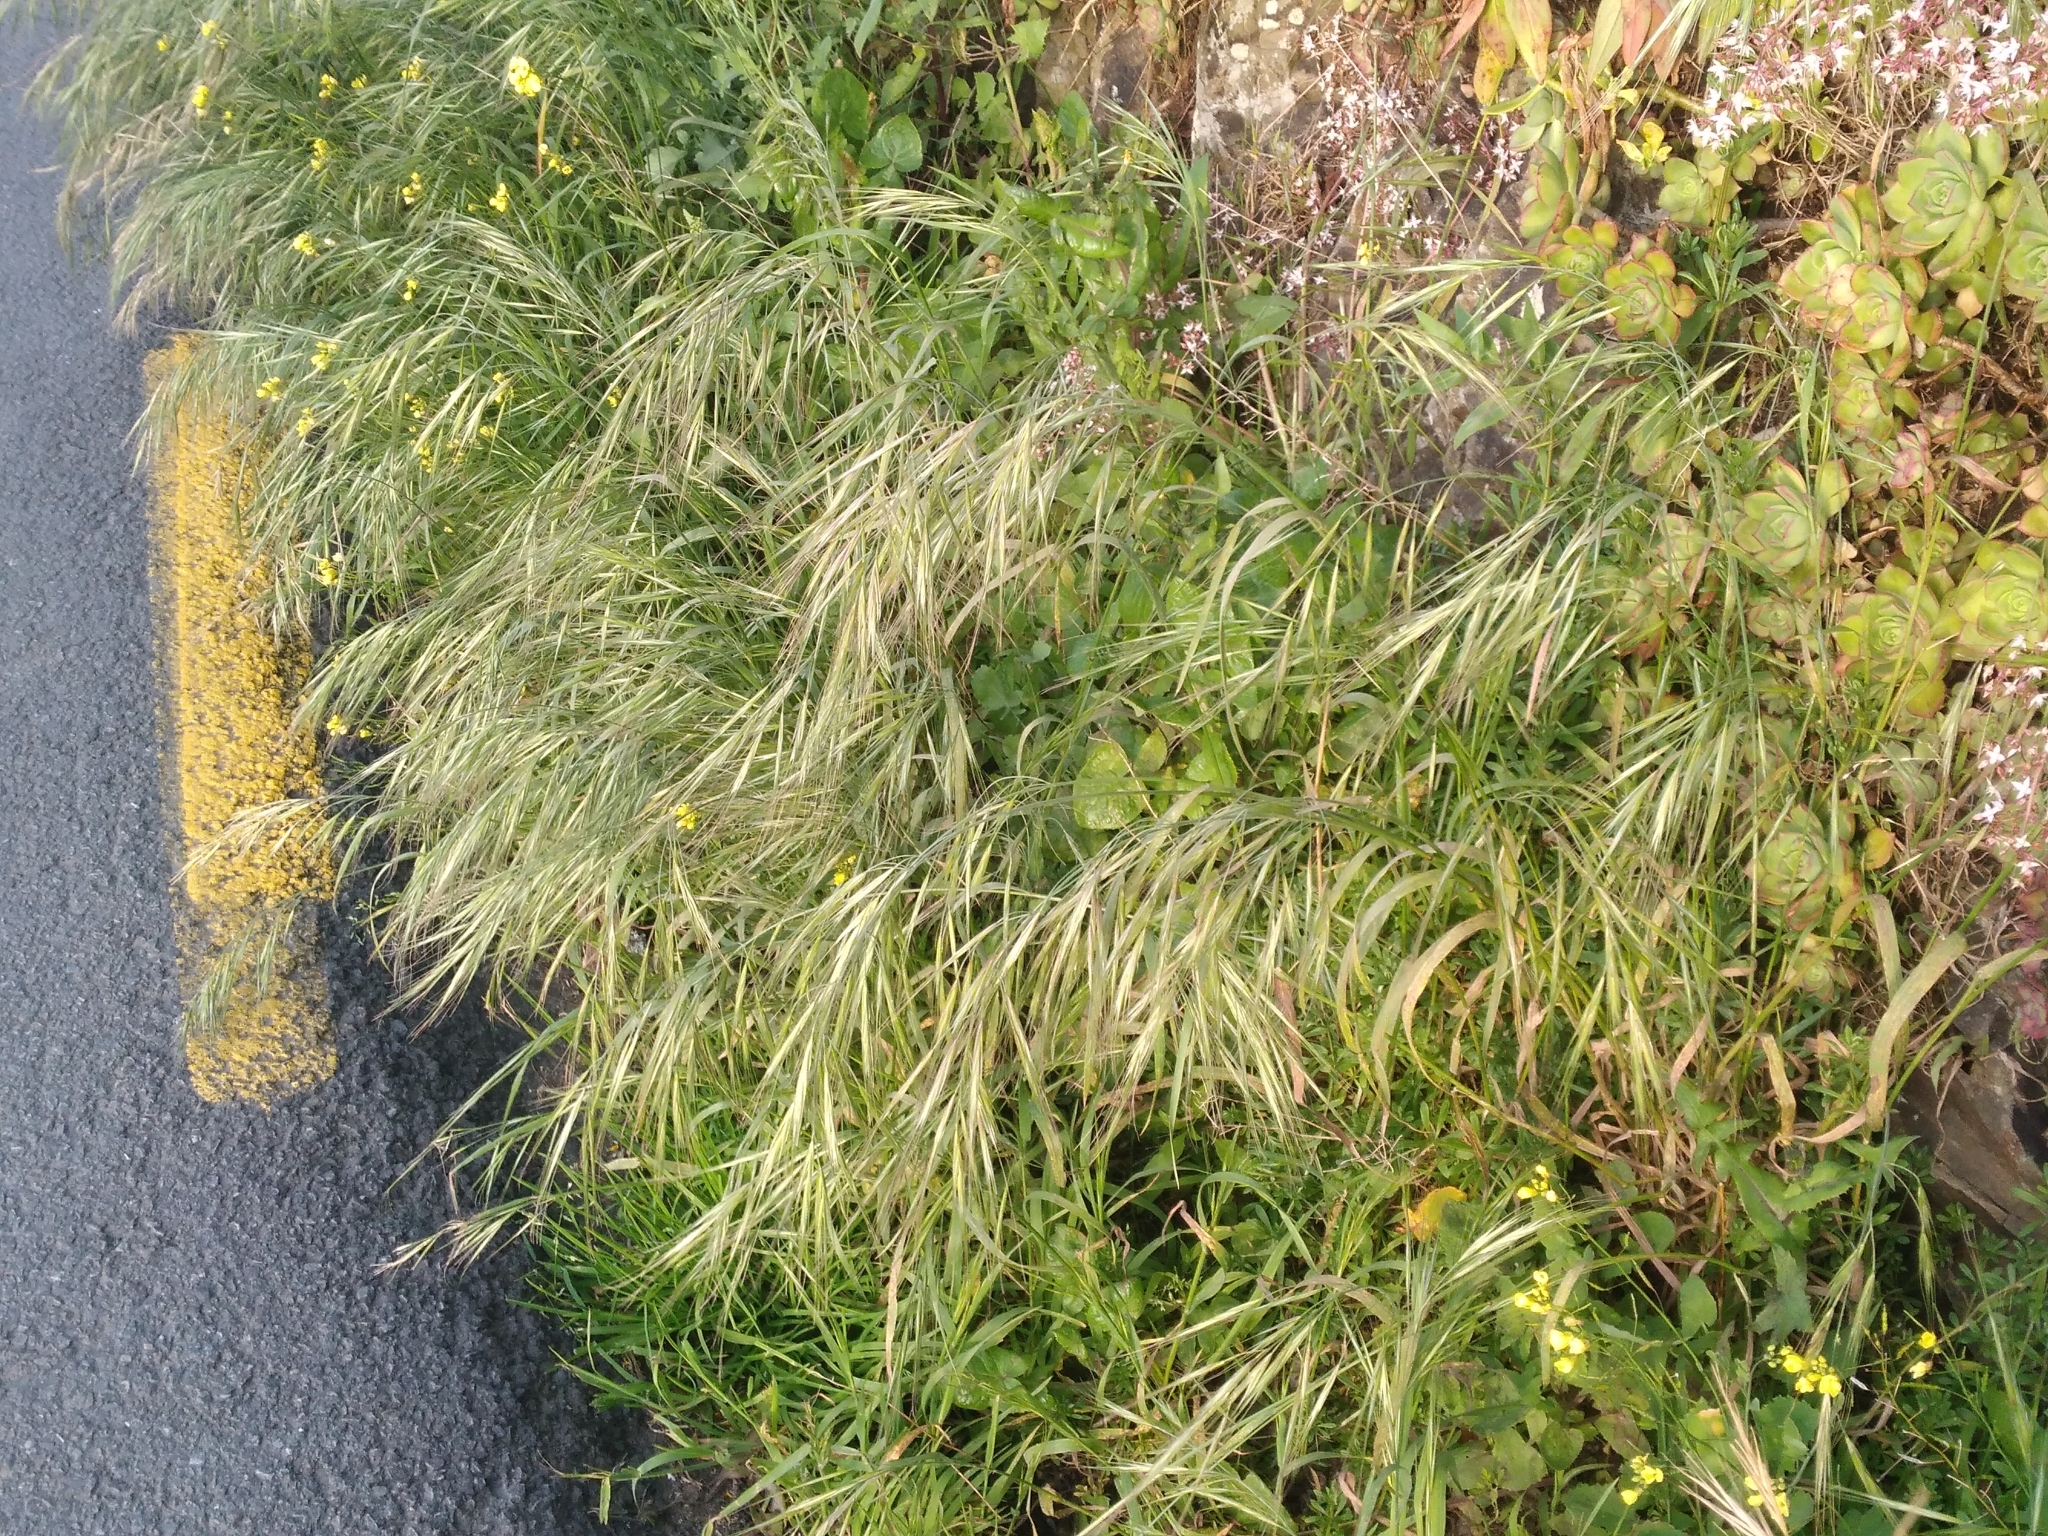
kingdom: Plantae
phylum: Tracheophyta
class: Liliopsida
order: Poales
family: Poaceae
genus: Bromus
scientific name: Bromus diandrus
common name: Ripgut brome
